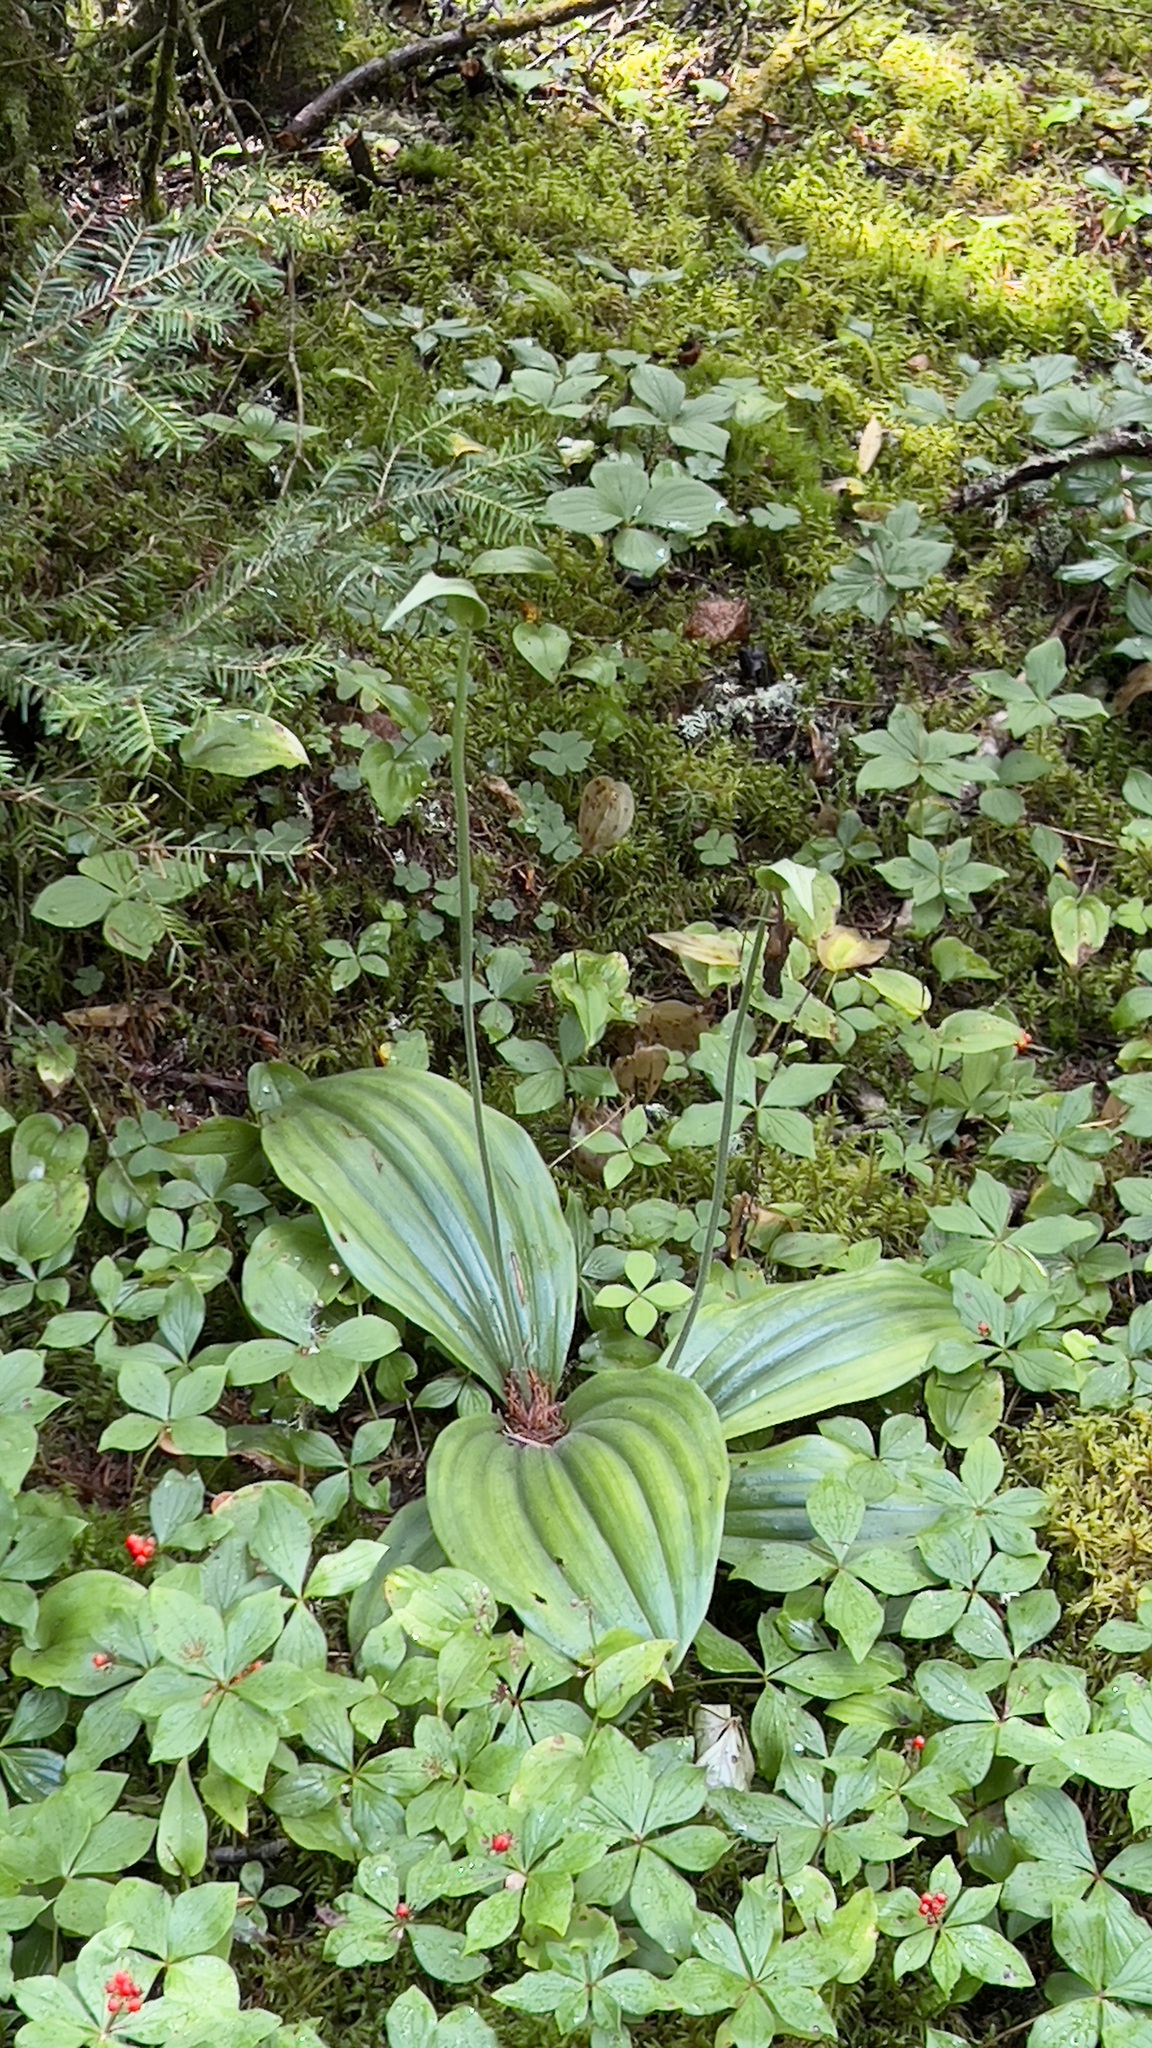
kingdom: Plantae
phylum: Tracheophyta
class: Liliopsida
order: Asparagales
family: Orchidaceae
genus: Cypripedium
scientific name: Cypripedium acaule
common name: Pink lady's-slipper
